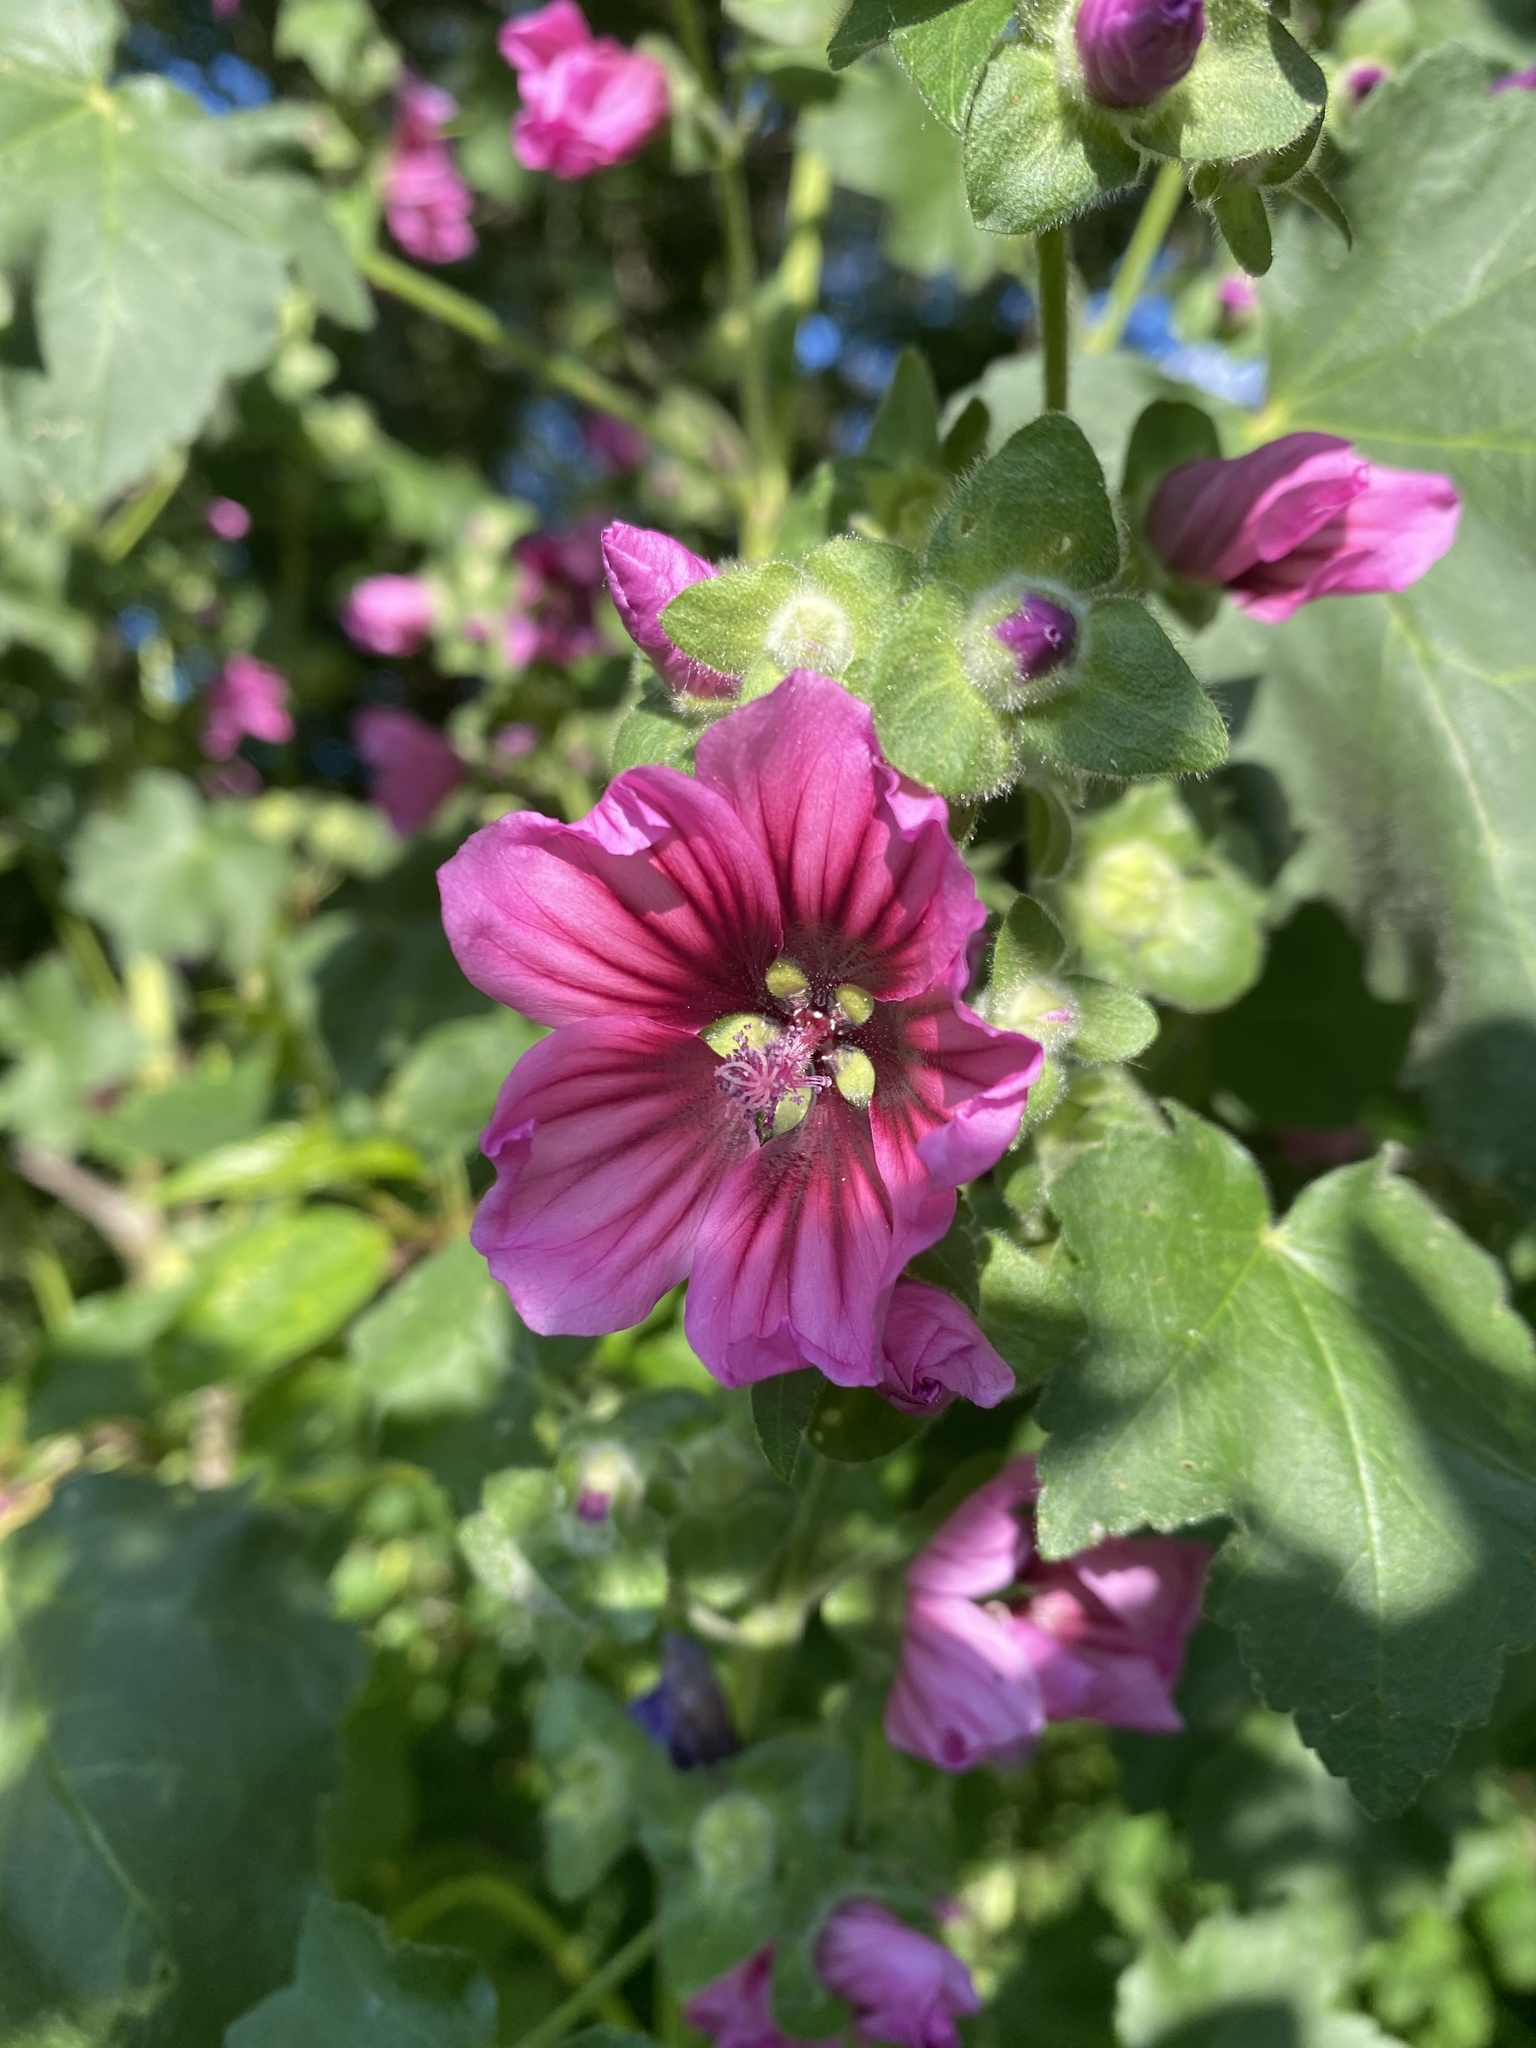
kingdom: Plantae
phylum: Tracheophyta
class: Magnoliopsida
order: Malvales
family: Malvaceae
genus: Malva
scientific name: Malva arborea
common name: Tree mallow
